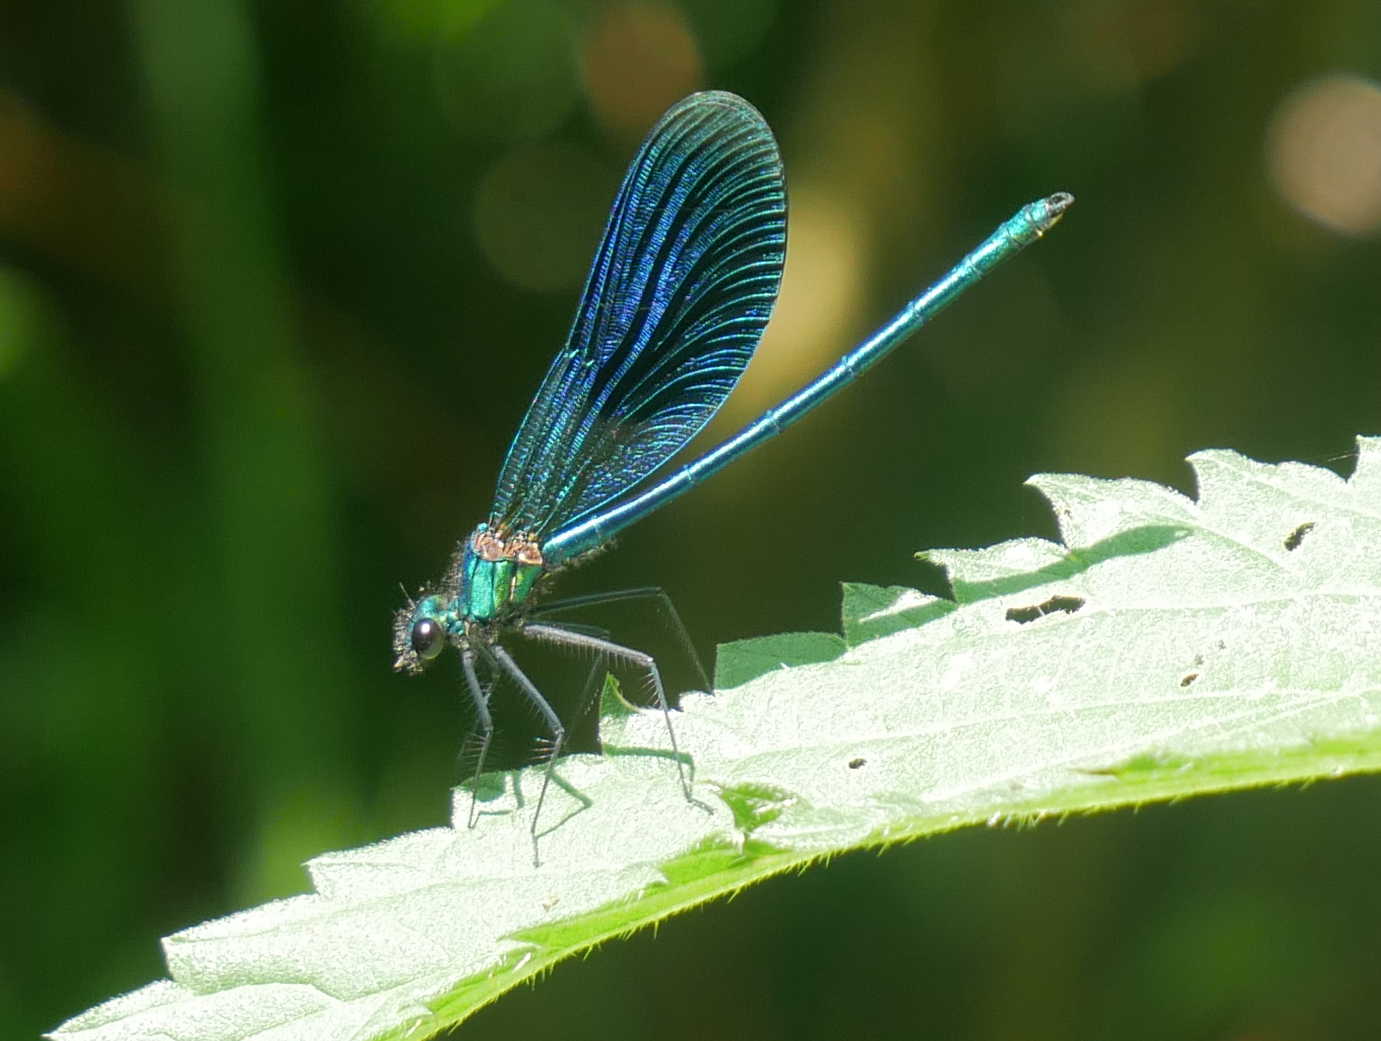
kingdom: Animalia
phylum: Arthropoda
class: Insecta
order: Odonata
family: Calopterygidae
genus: Calopteryx
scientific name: Calopteryx virgo
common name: Beautiful demoiselle
